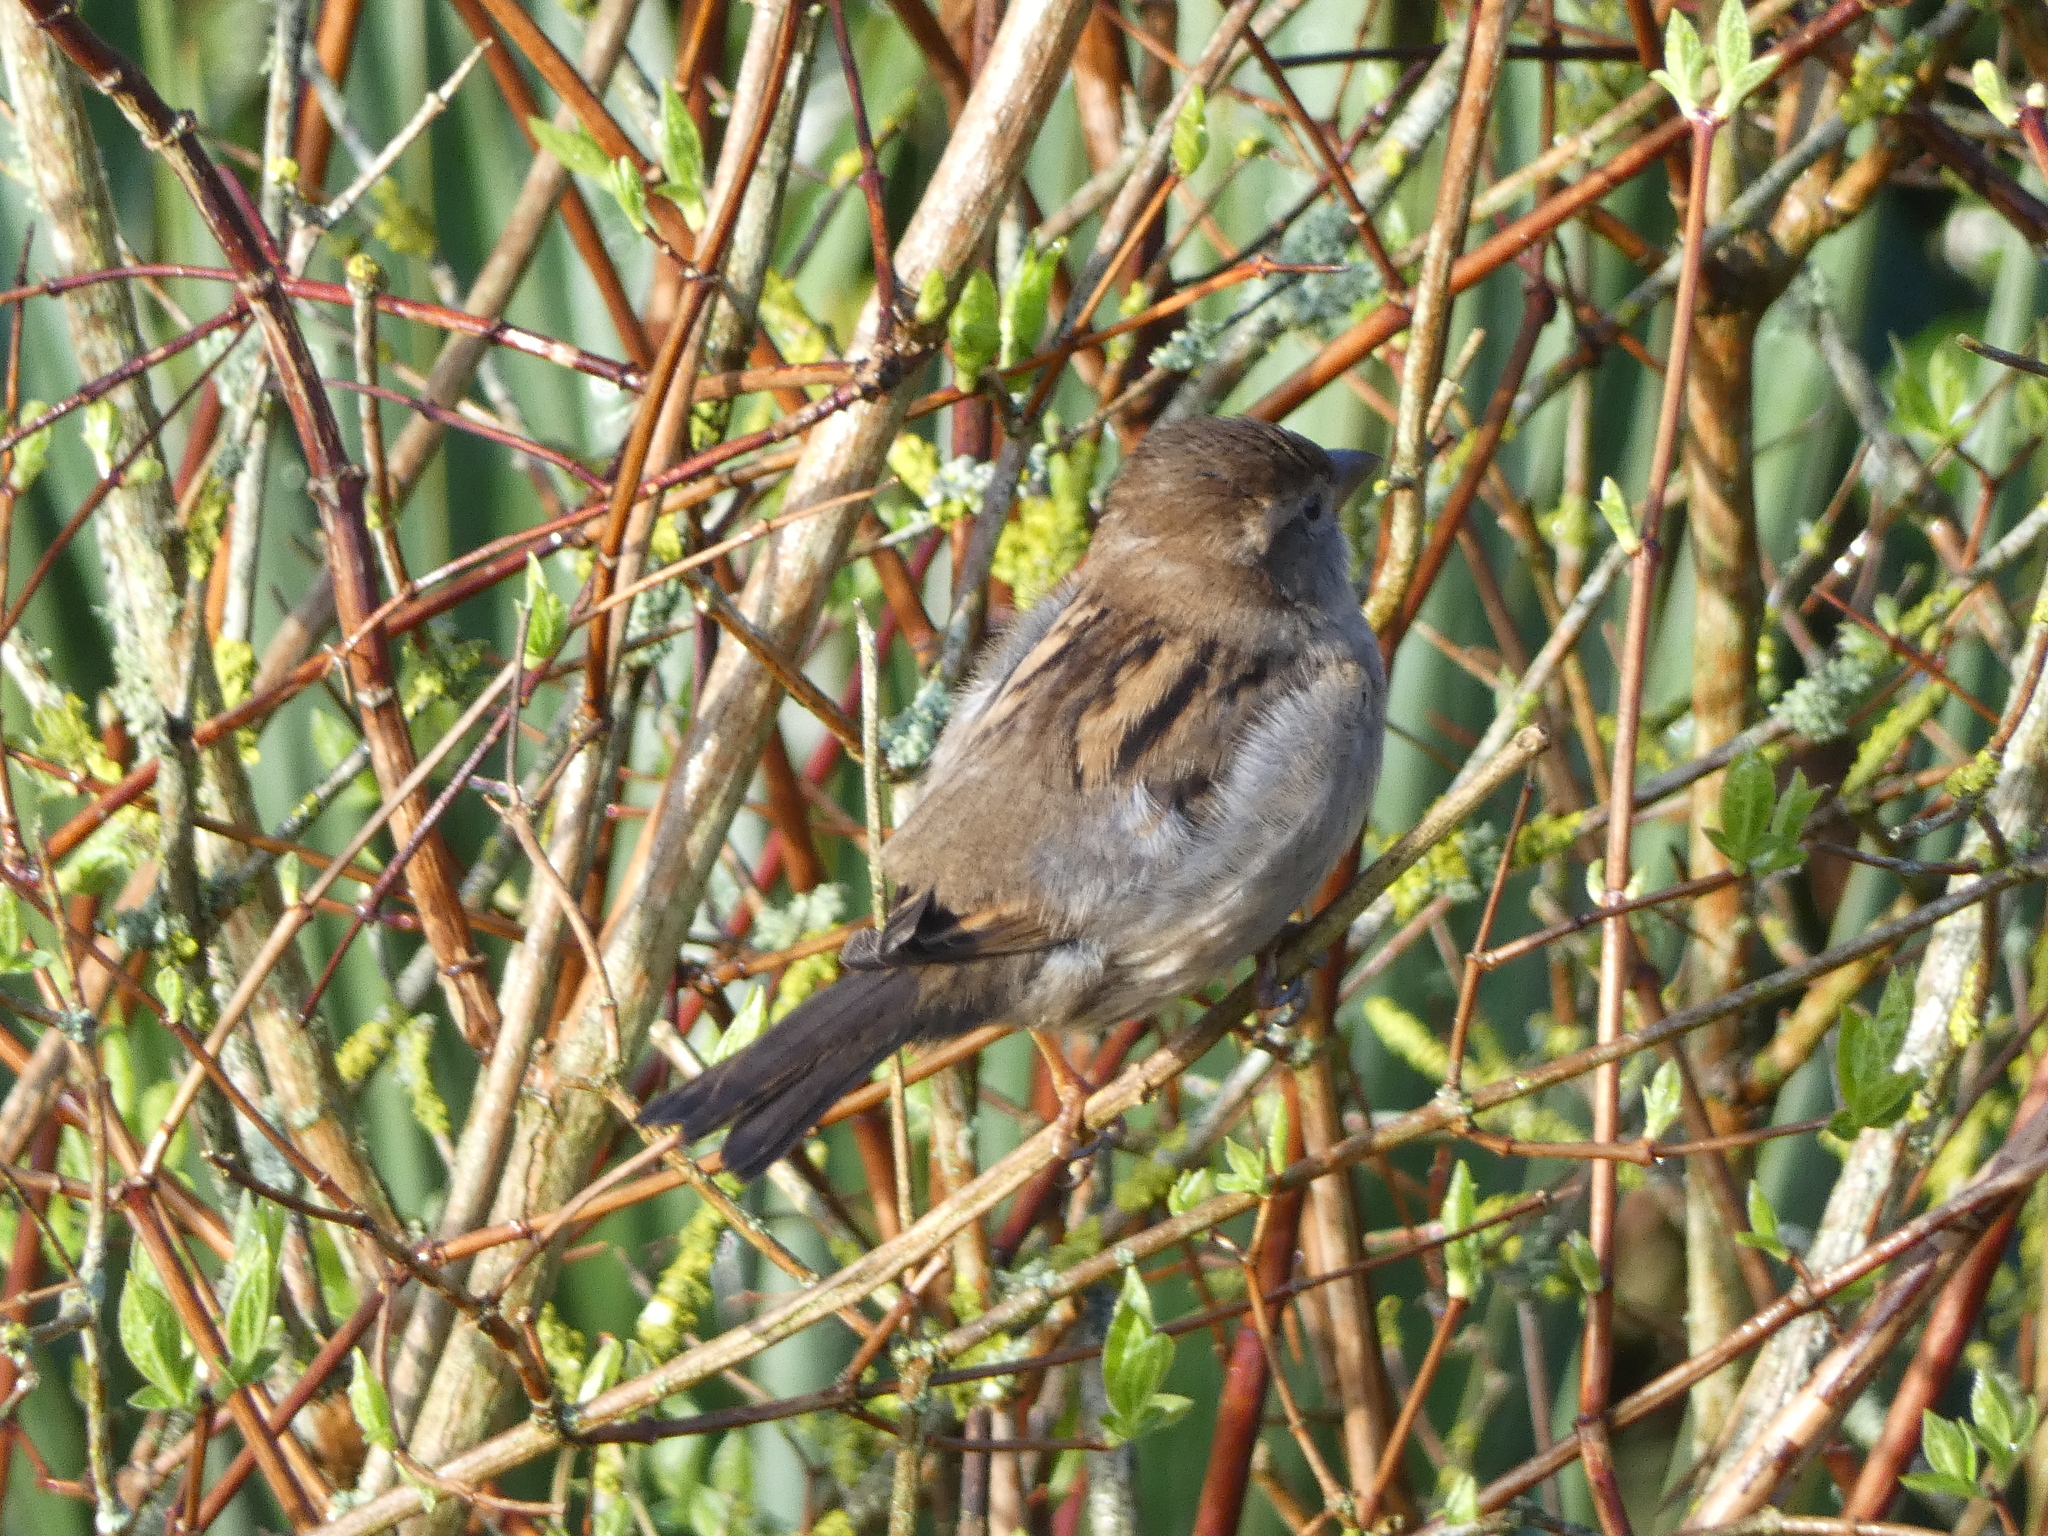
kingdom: Animalia
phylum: Chordata
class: Aves
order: Passeriformes
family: Passeridae
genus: Passer
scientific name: Passer domesticus
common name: House sparrow
